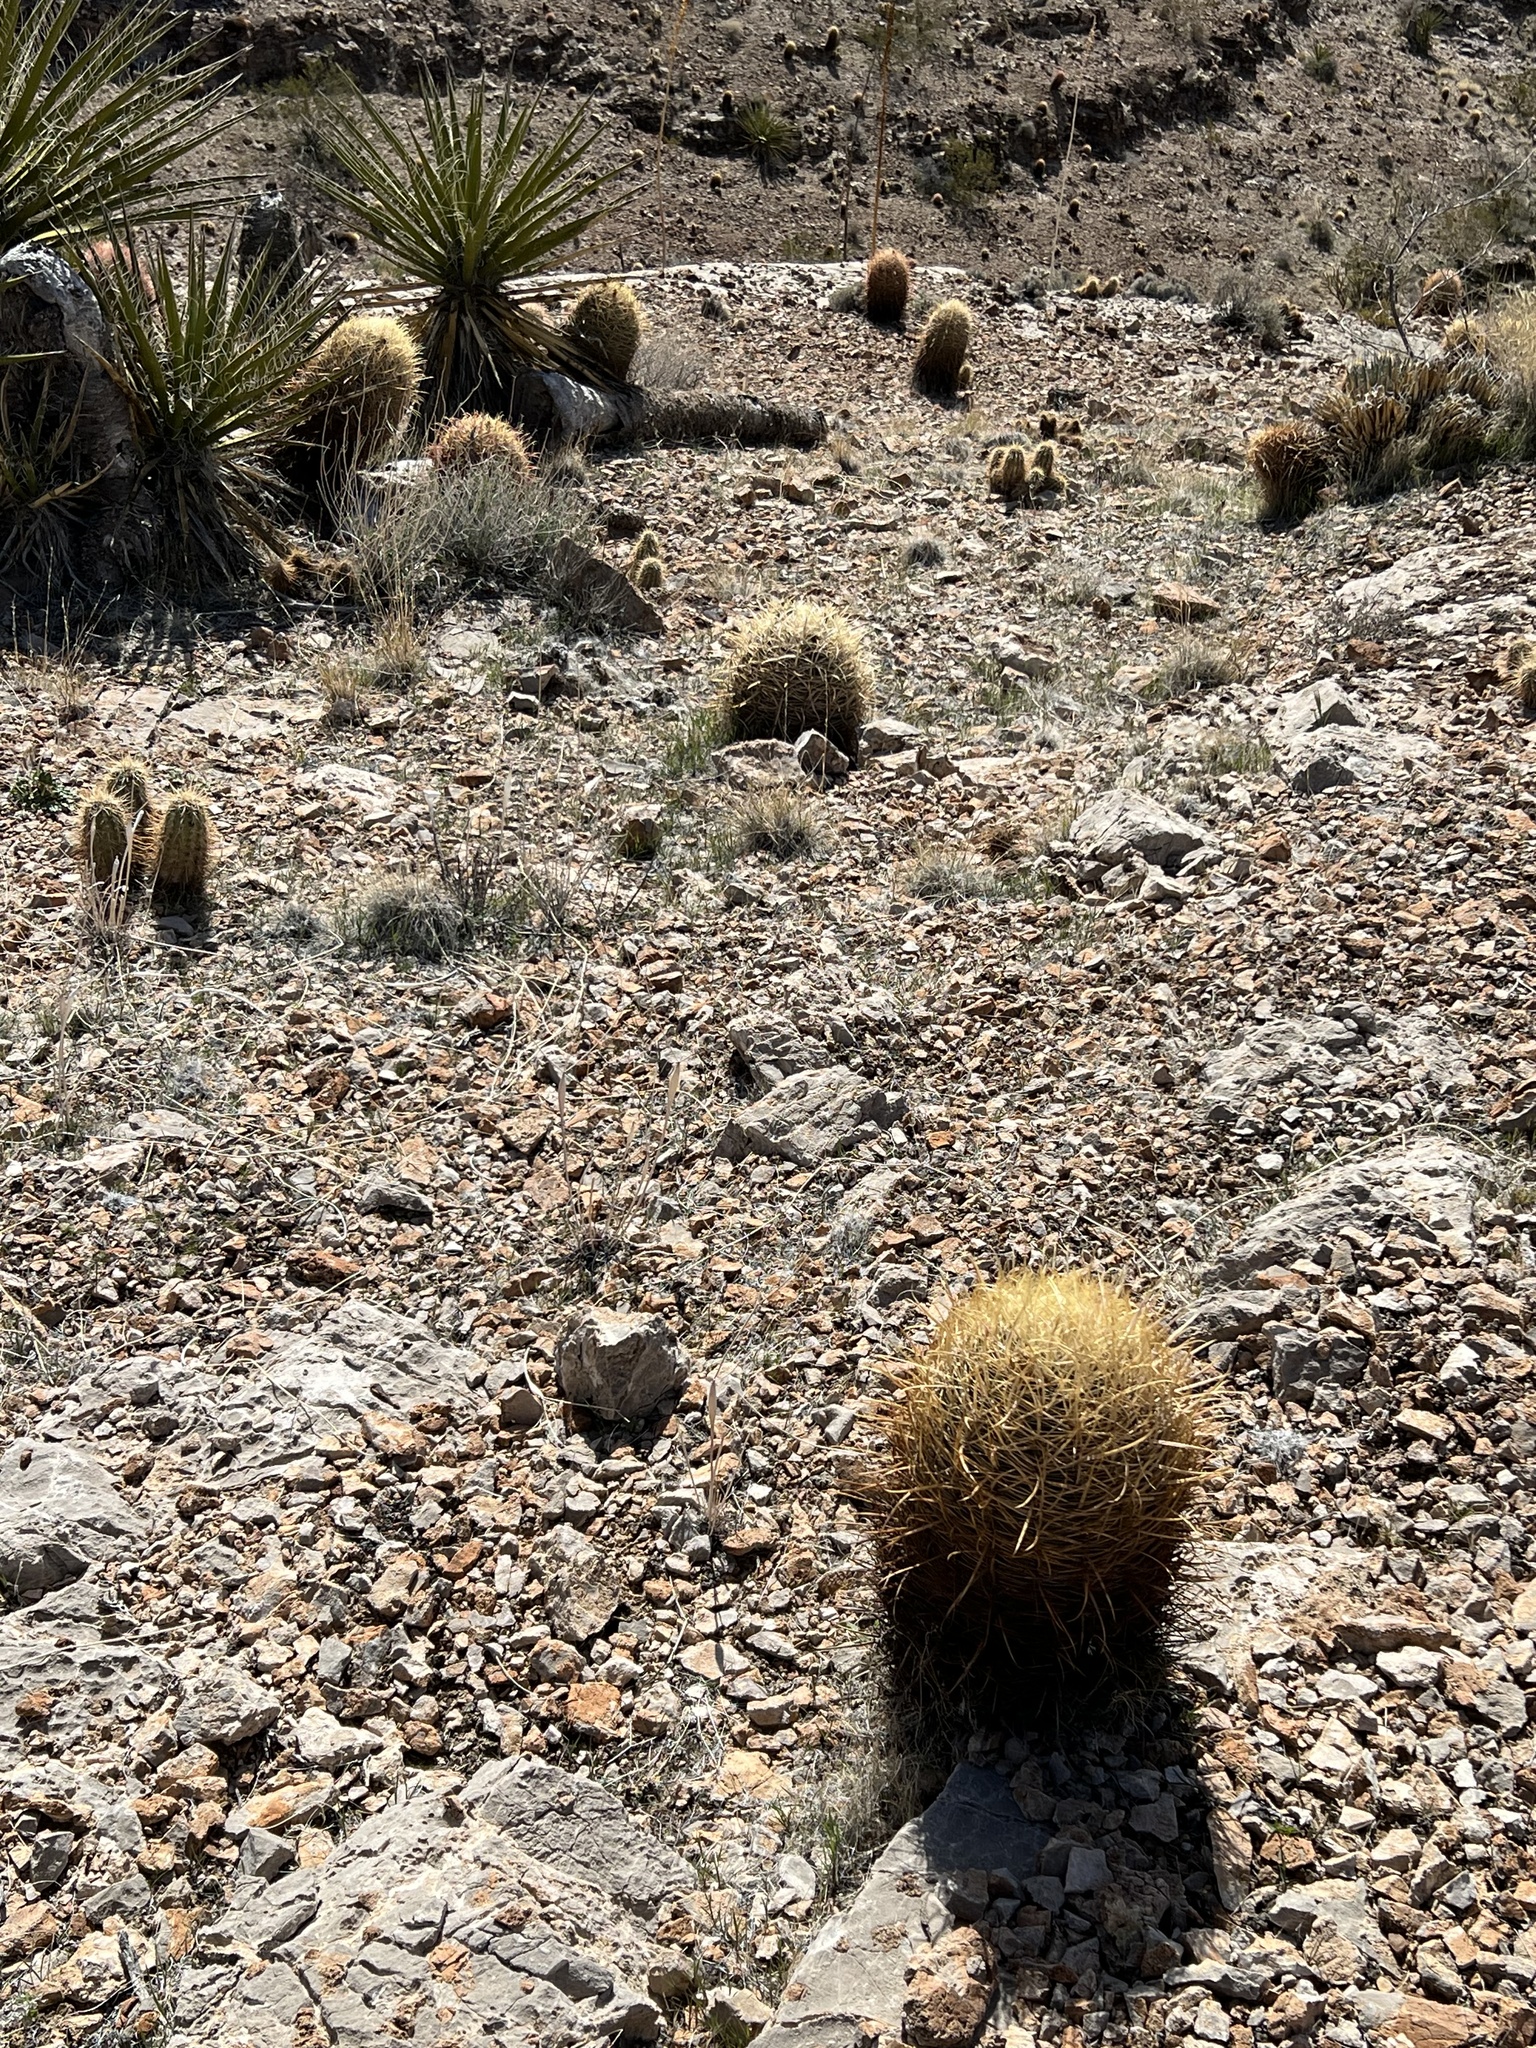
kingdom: Plantae
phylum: Tracheophyta
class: Magnoliopsida
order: Caryophyllales
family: Cactaceae
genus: Ferocactus
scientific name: Ferocactus cylindraceus
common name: California barrel cactus
